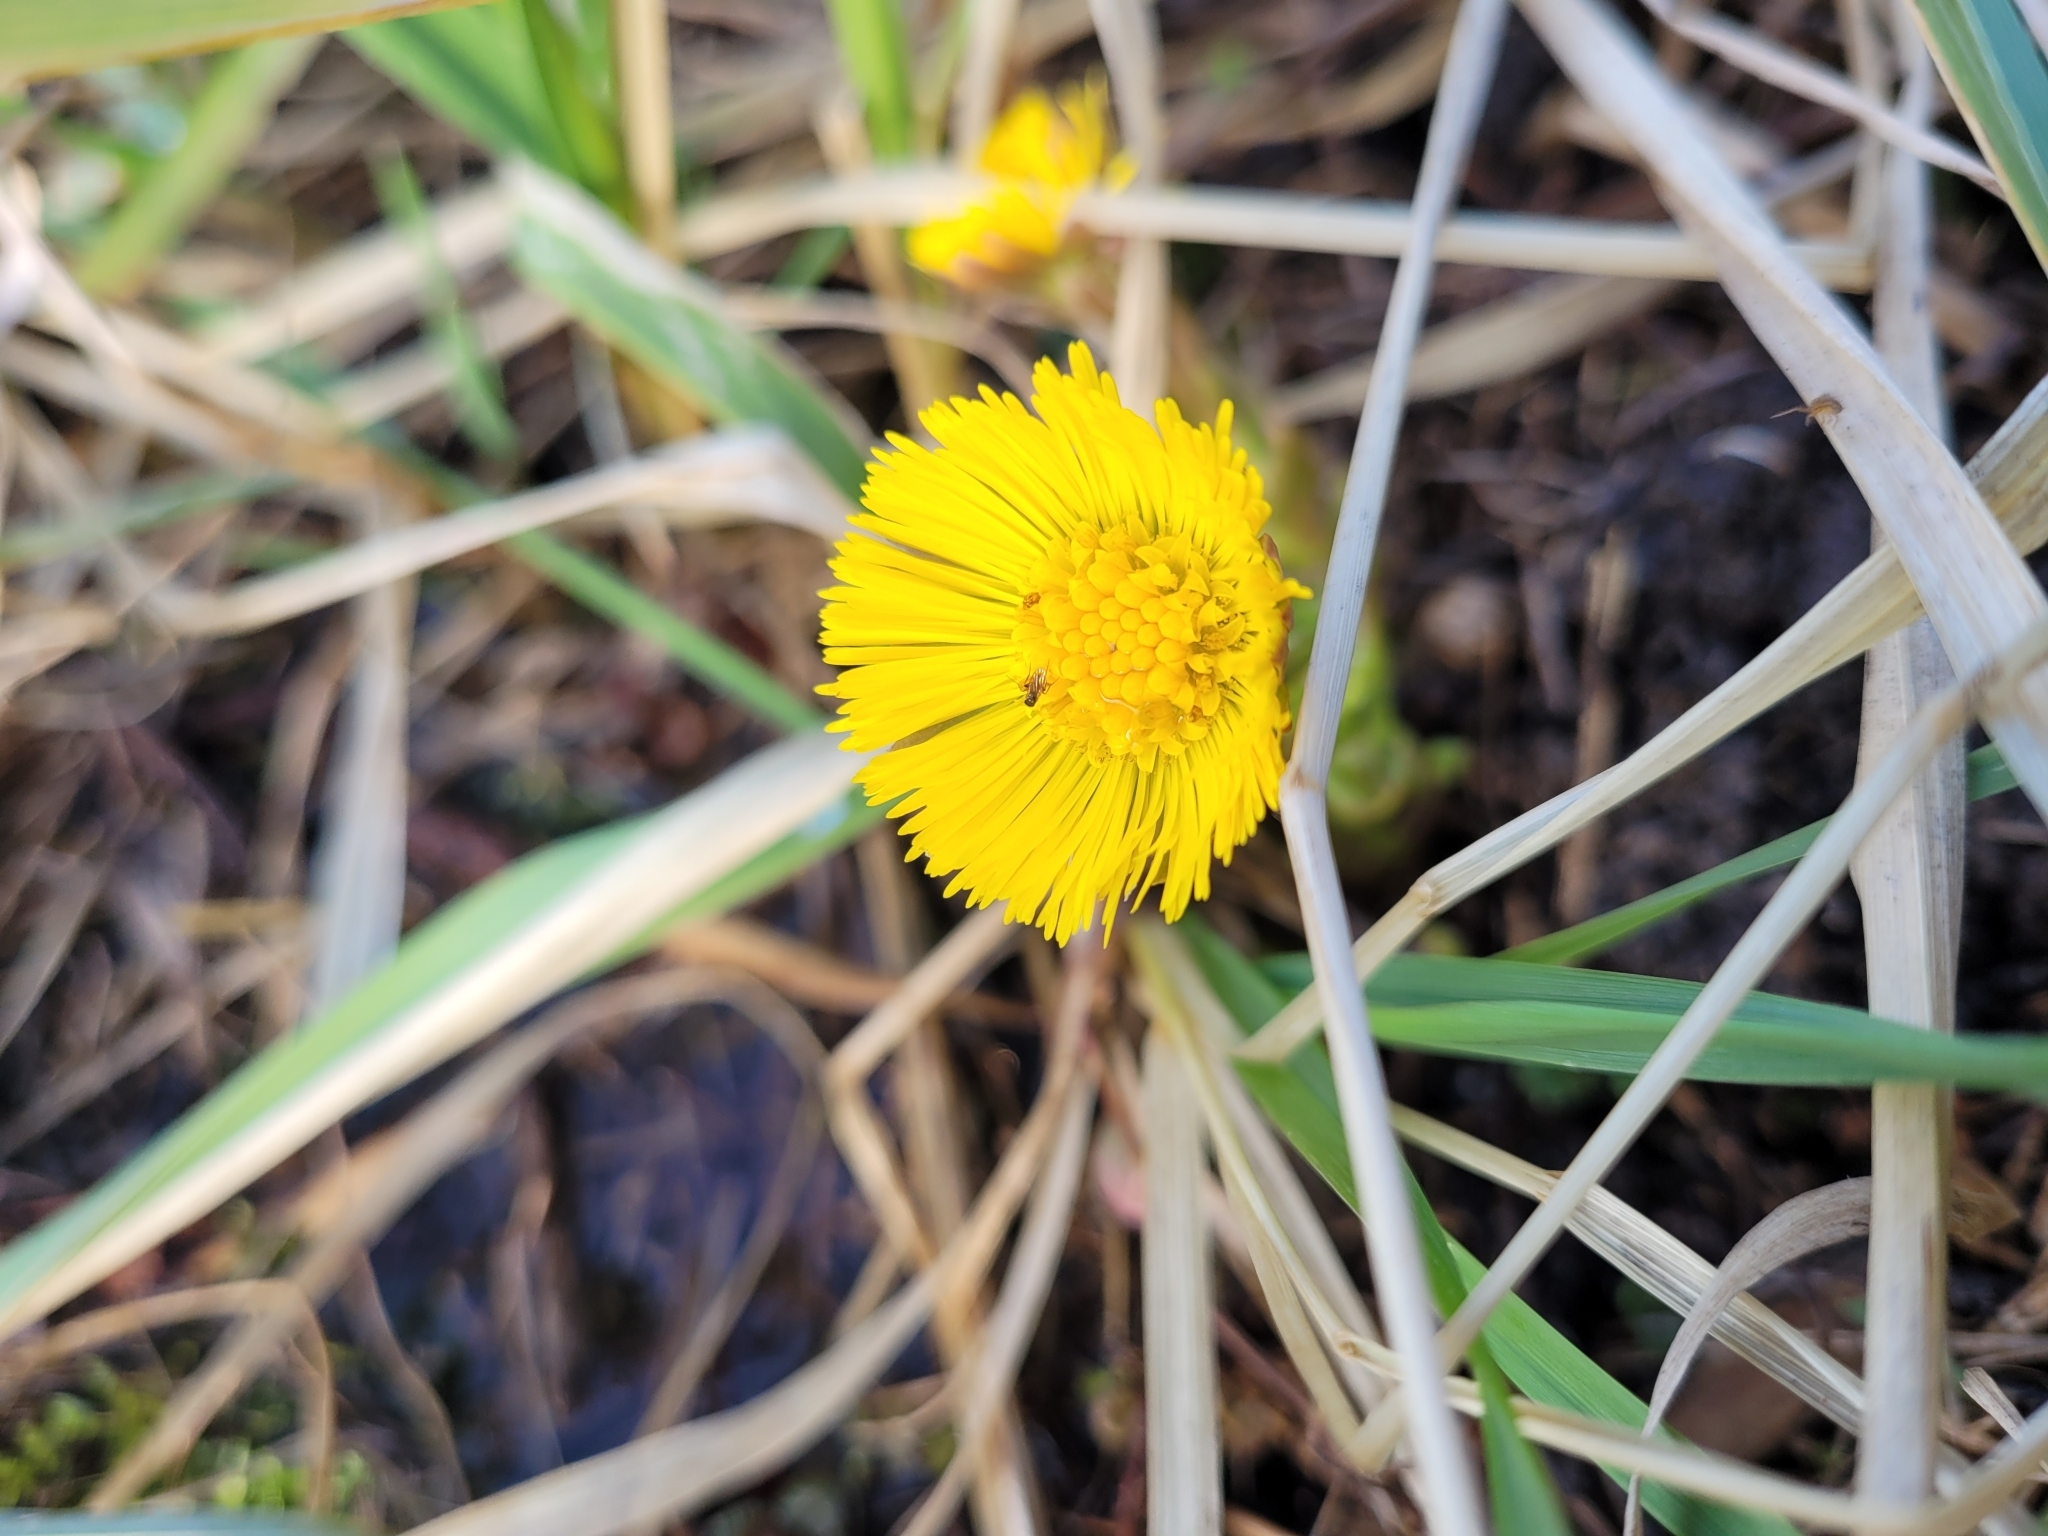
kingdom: Plantae
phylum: Tracheophyta
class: Magnoliopsida
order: Asterales
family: Asteraceae
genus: Tussilago
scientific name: Tussilago farfara
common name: Coltsfoot
